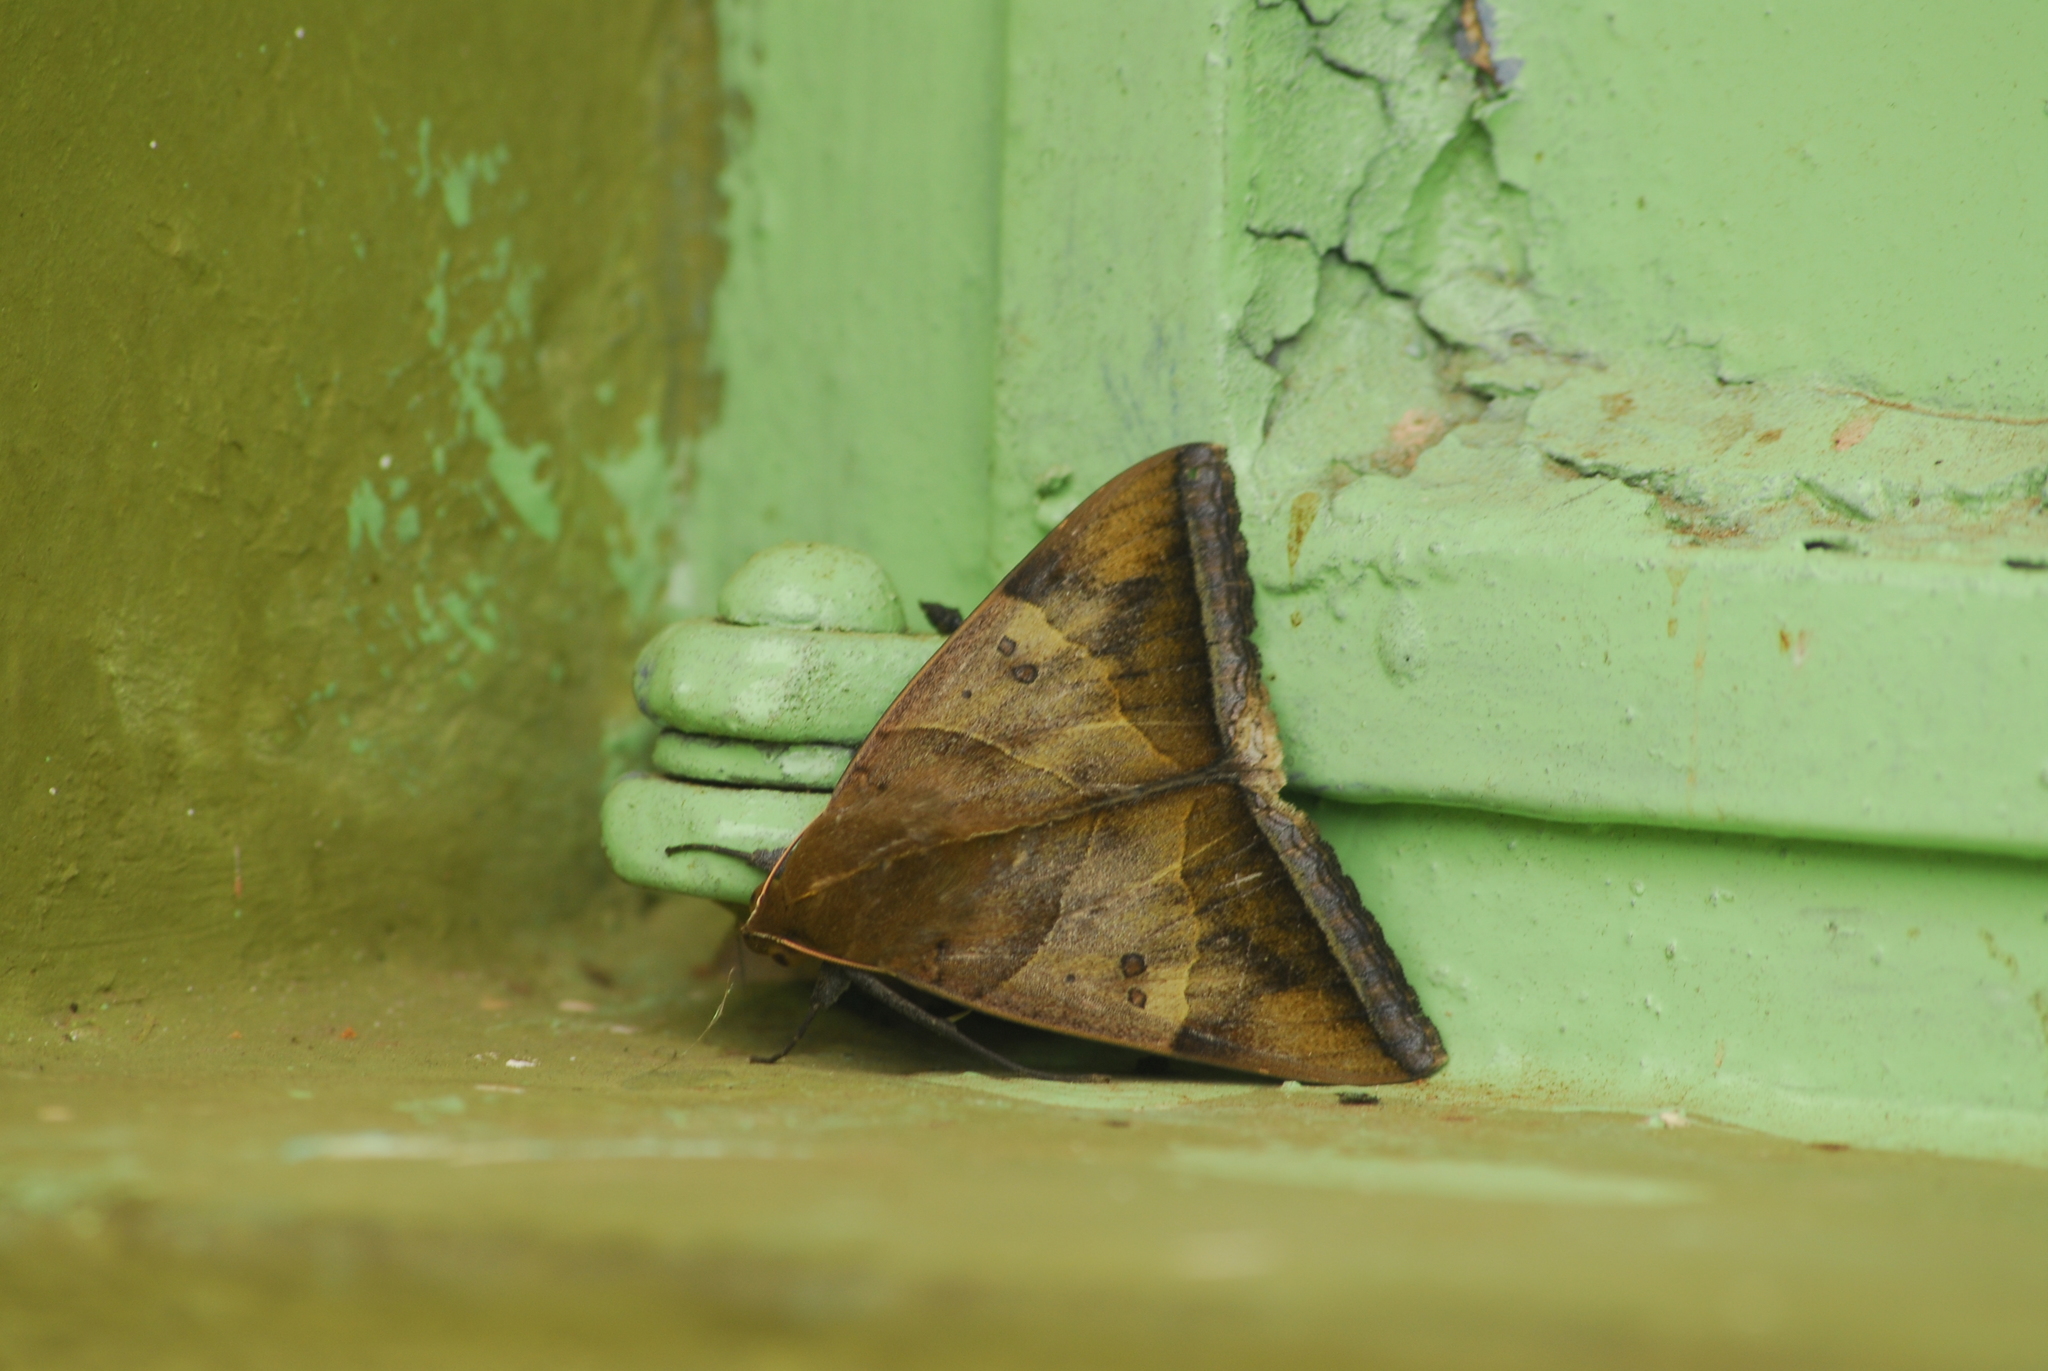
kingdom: Animalia
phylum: Arthropoda
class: Insecta
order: Lepidoptera
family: Erebidae
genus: Artena
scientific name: Artena dotata
